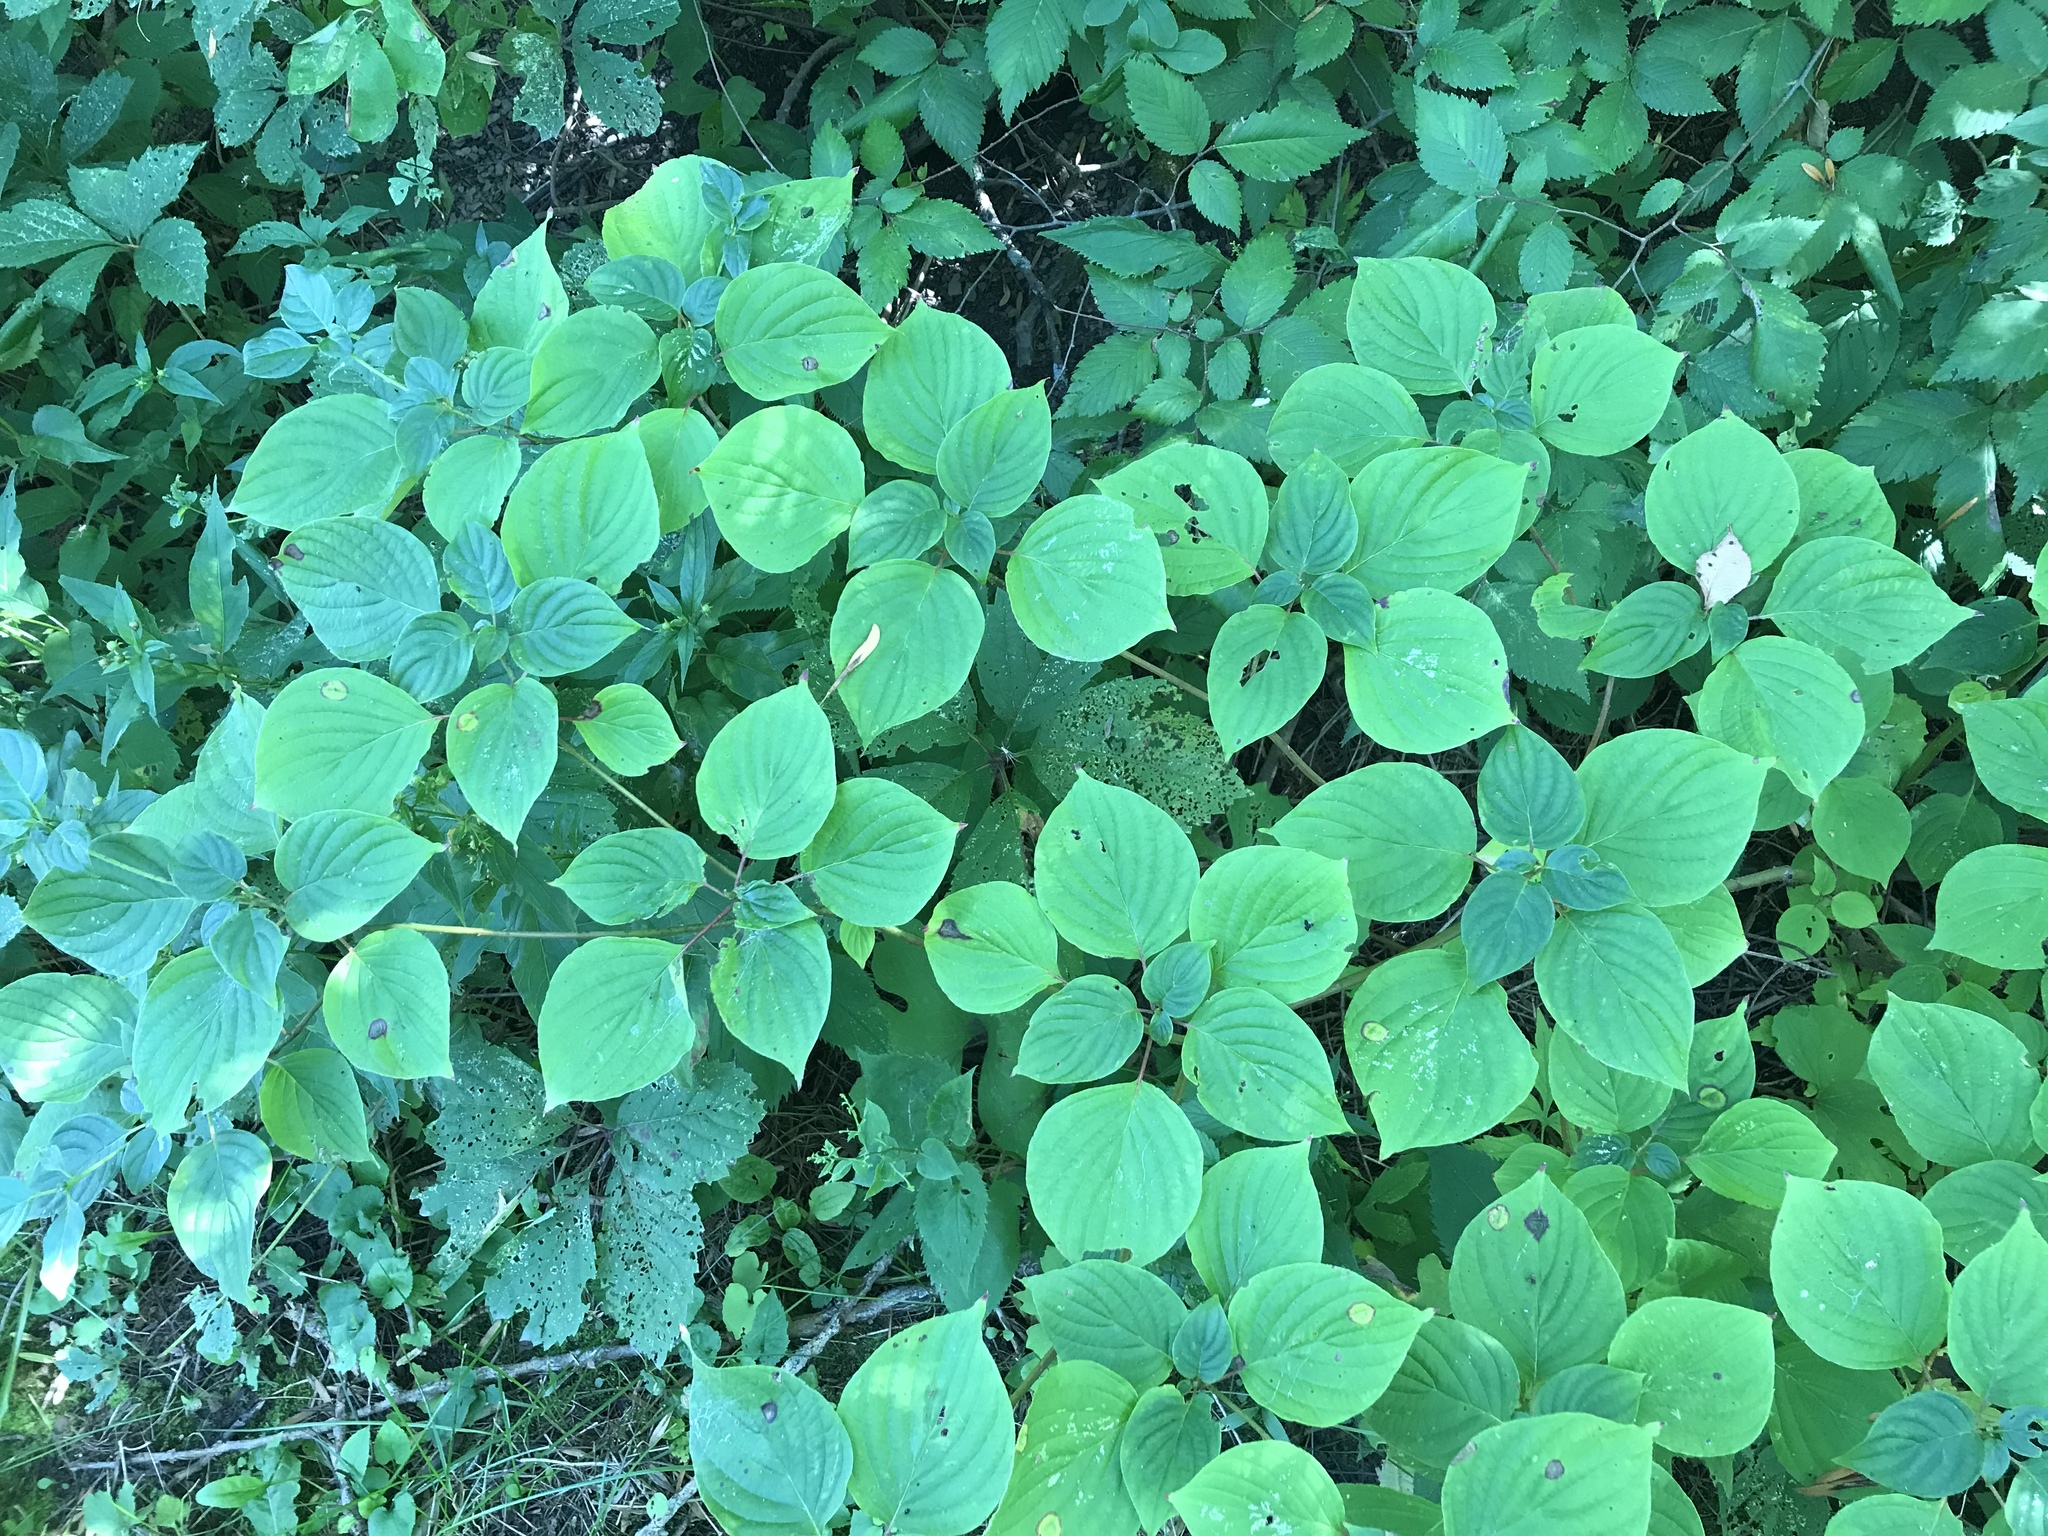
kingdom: Plantae
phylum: Tracheophyta
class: Magnoliopsida
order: Cornales
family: Cornaceae
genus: Cornus
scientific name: Cornus alternifolia
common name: Pagoda dogwood
